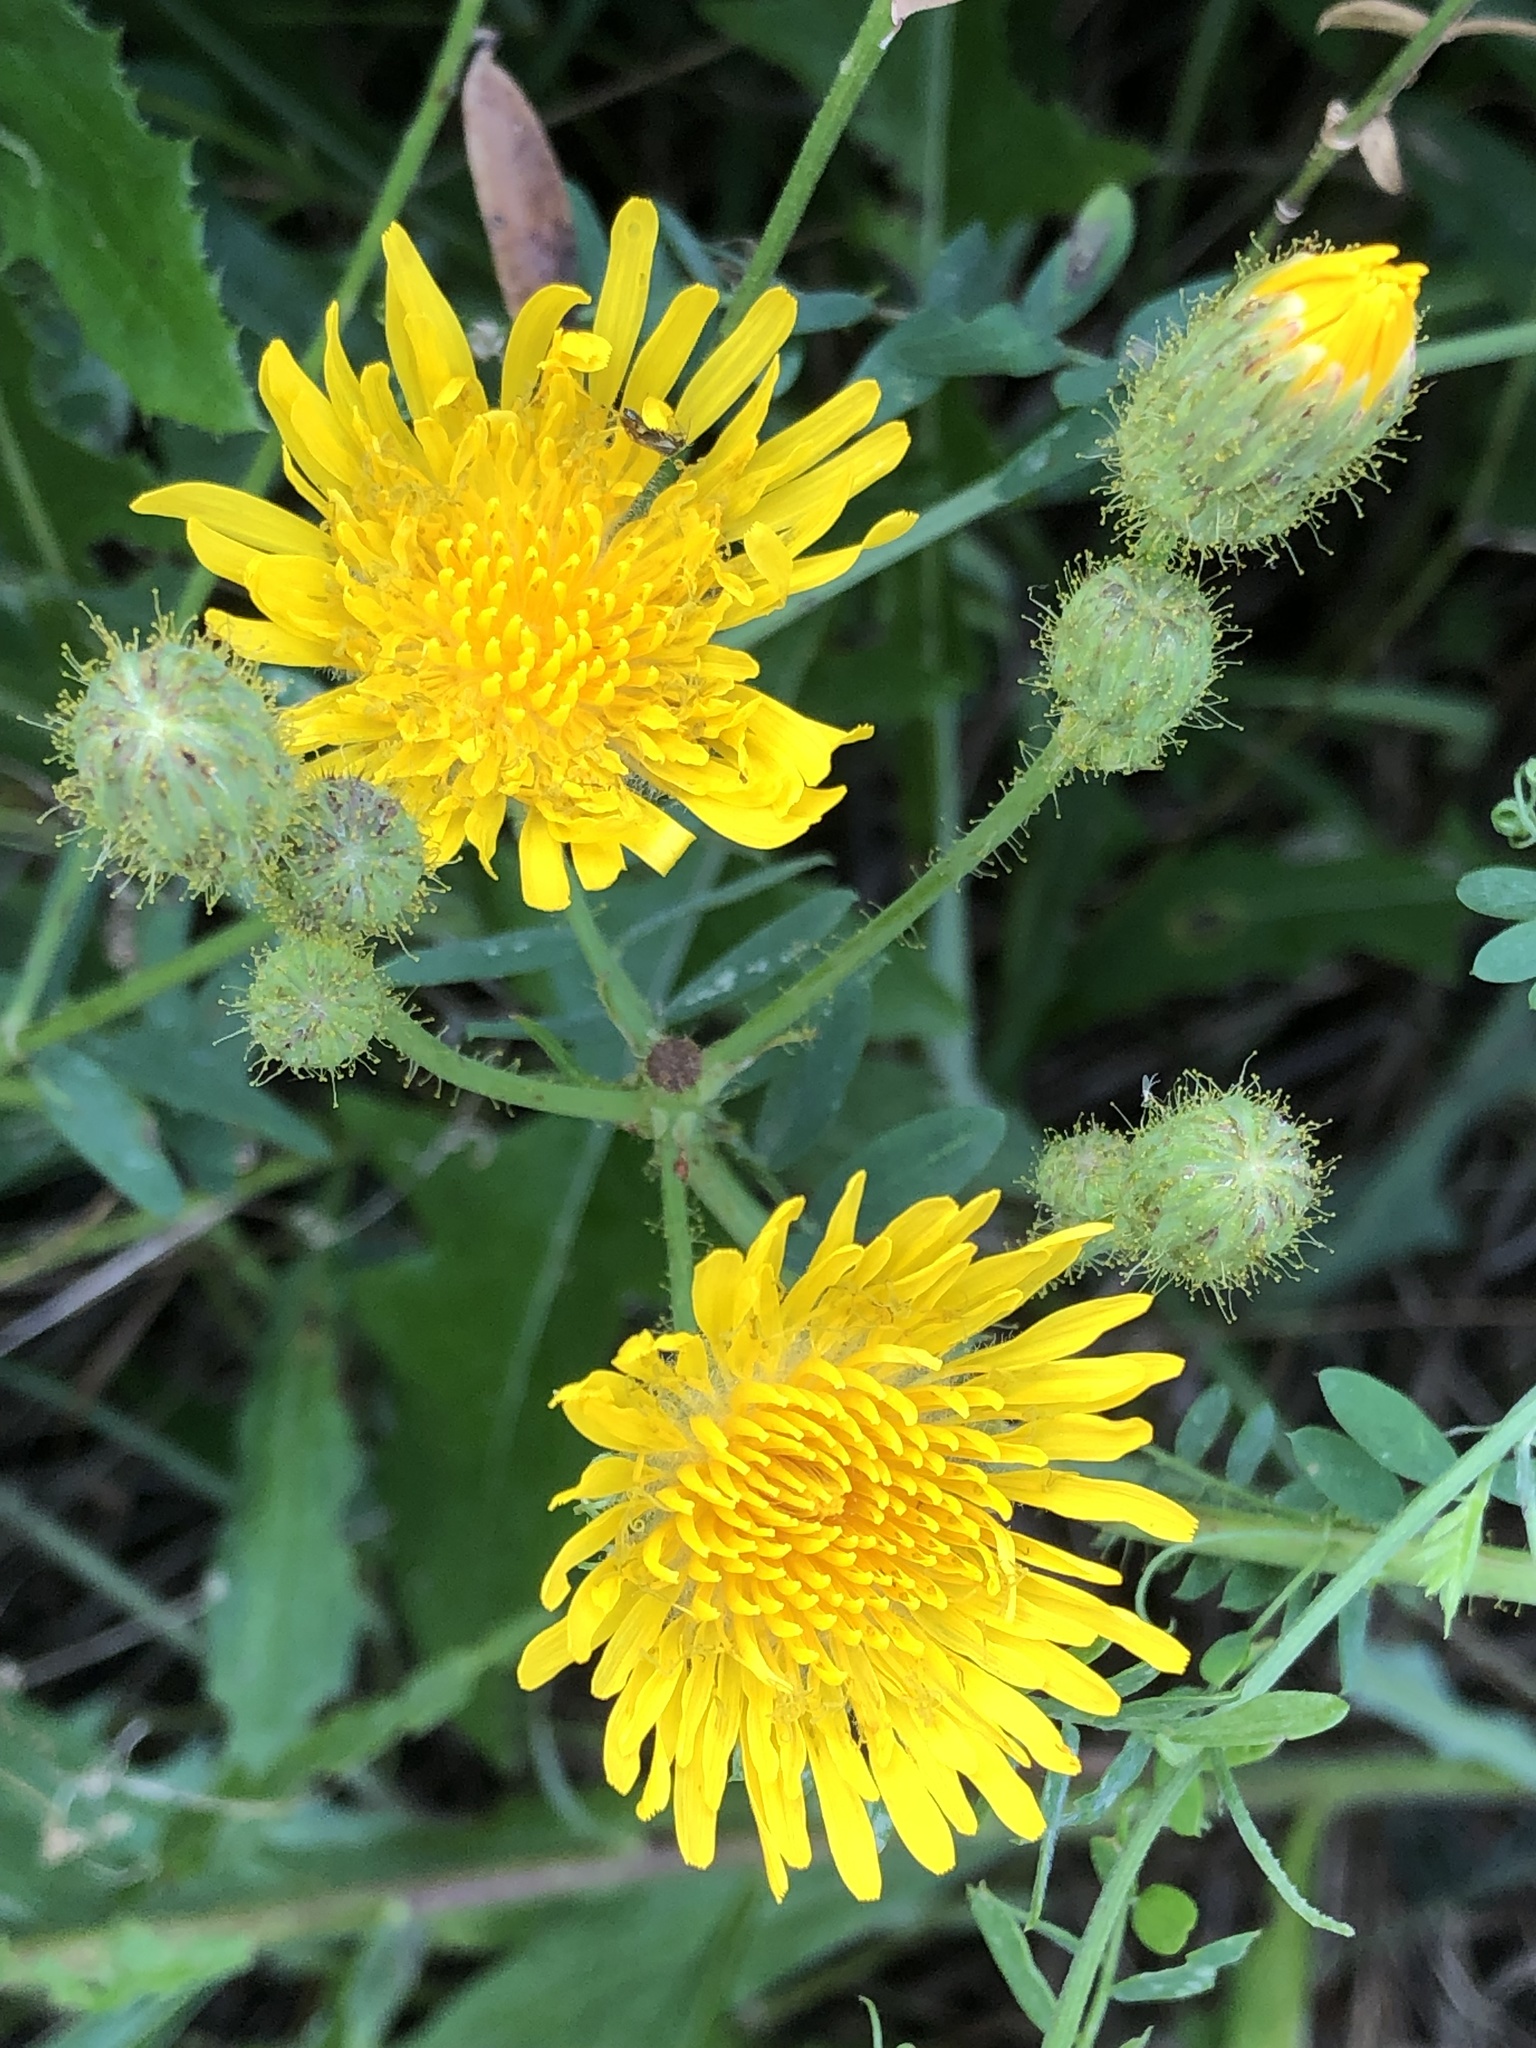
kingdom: Plantae
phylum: Tracheophyta
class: Magnoliopsida
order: Asterales
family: Asteraceae
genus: Sonchus
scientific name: Sonchus arvensis
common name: Perennial sow-thistle
